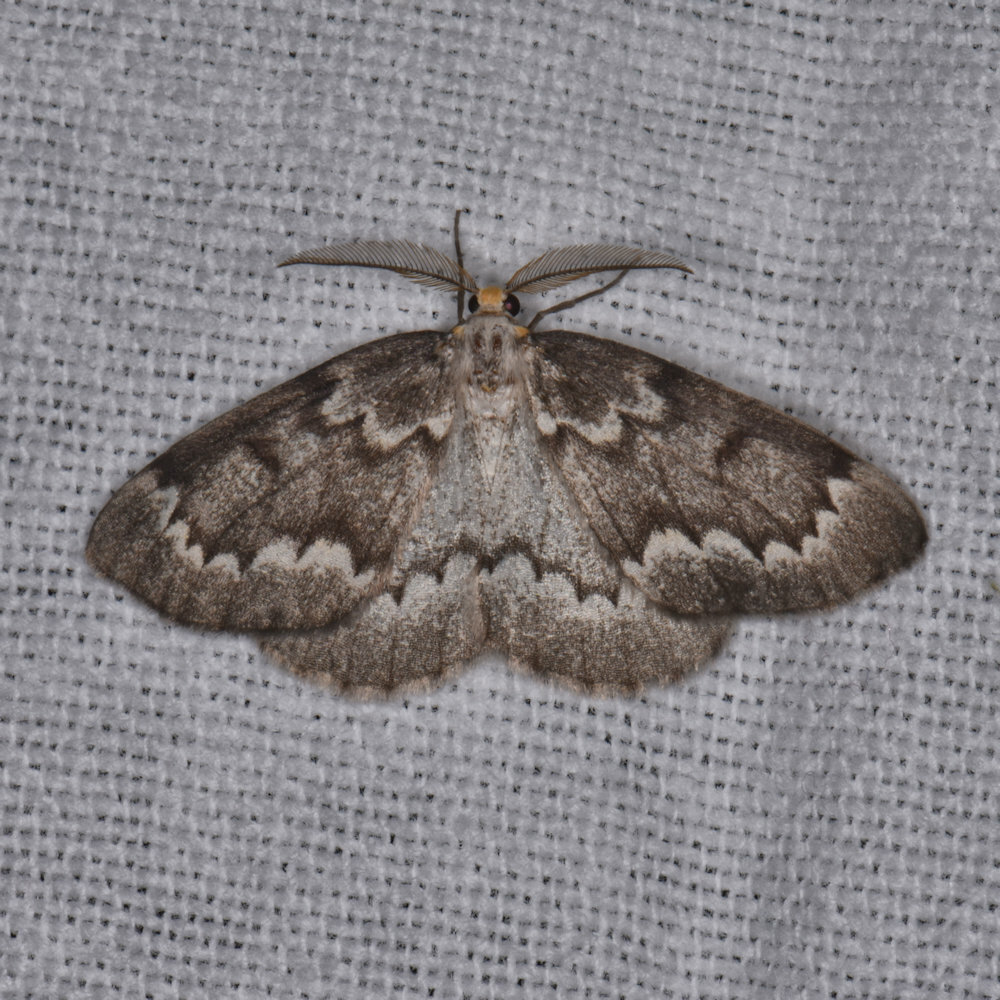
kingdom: Animalia
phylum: Arthropoda
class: Insecta
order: Lepidoptera
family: Geometridae
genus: Nepytia
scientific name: Nepytia canosaria
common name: False hemlock looper
